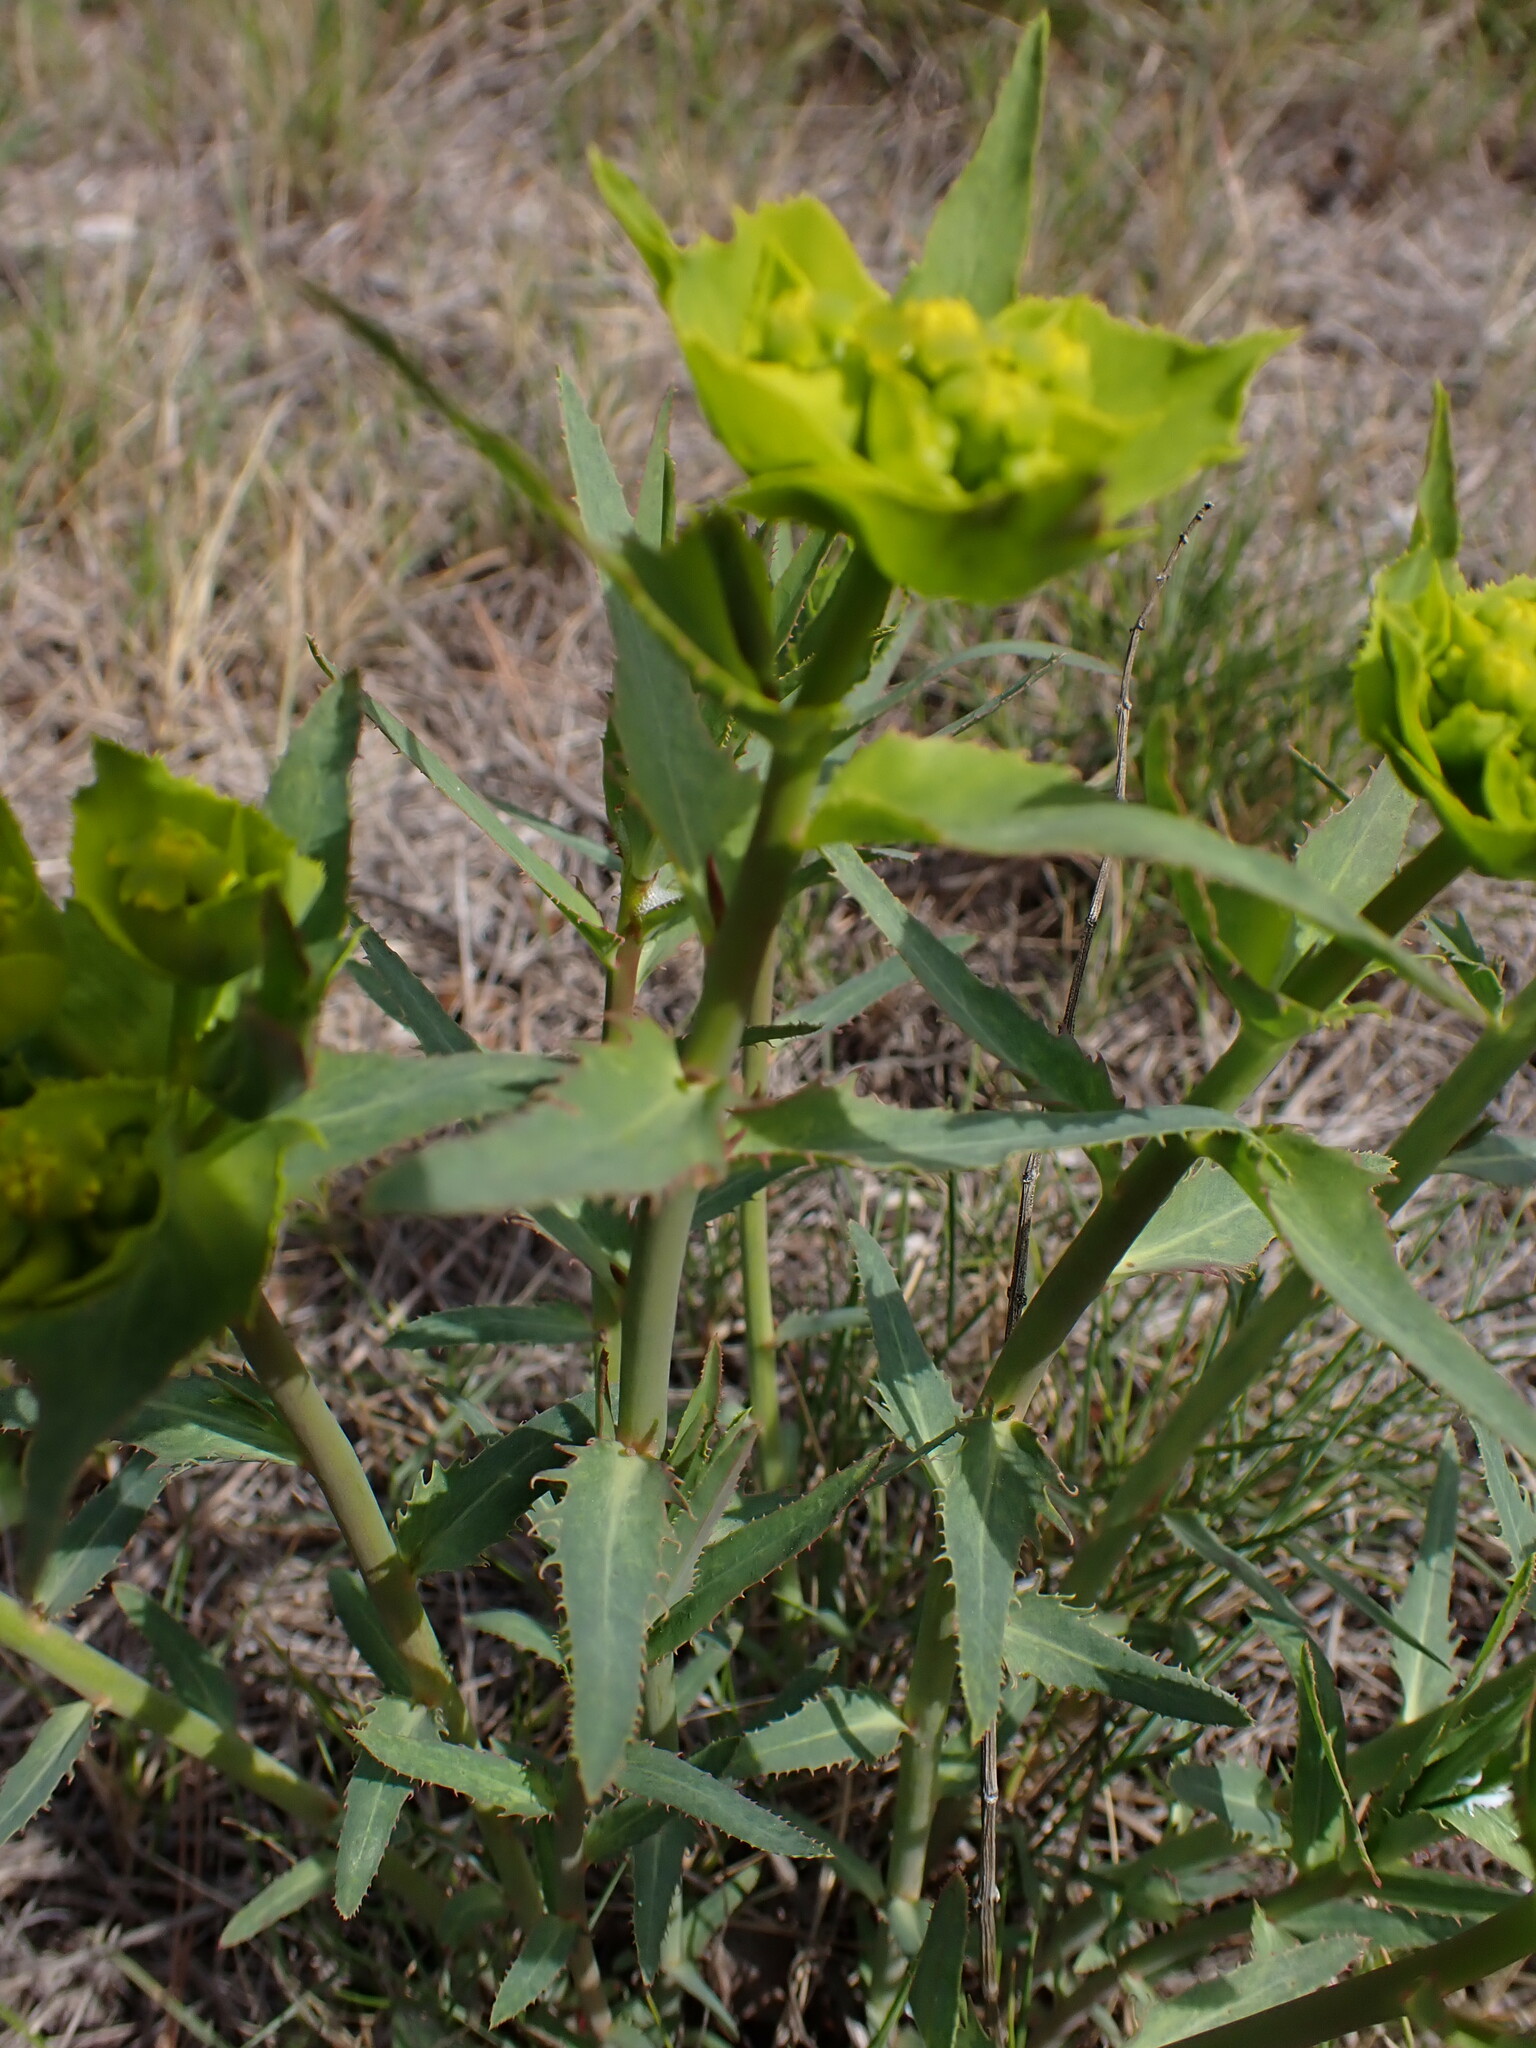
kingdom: Plantae
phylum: Tracheophyta
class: Magnoliopsida
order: Malpighiales
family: Euphorbiaceae
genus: Euphorbia
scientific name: Euphorbia serrata
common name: Serrate spurge
